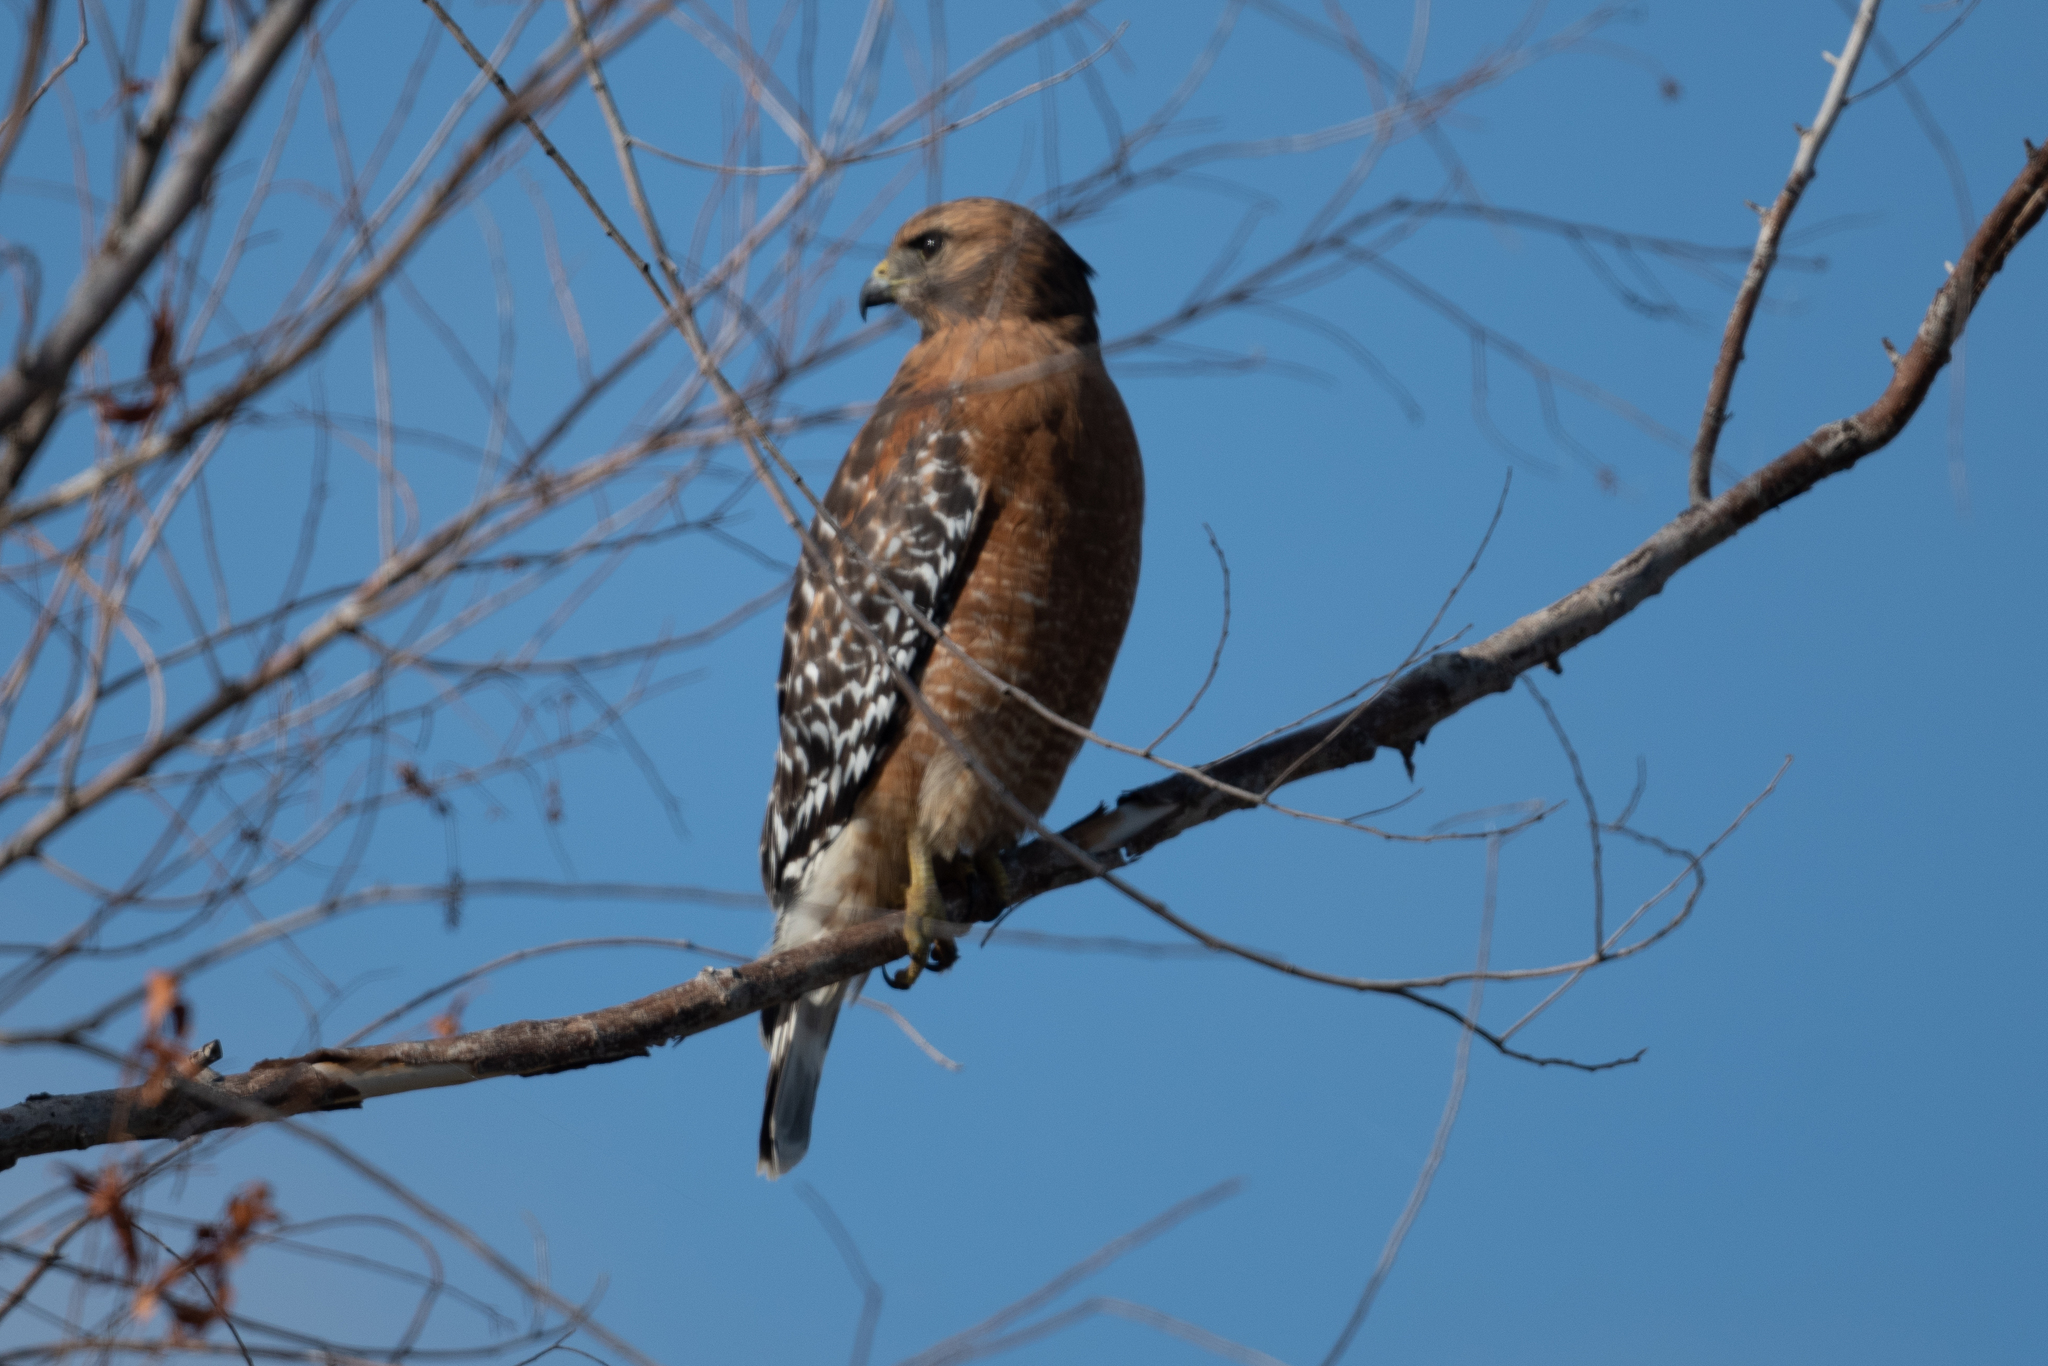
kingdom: Animalia
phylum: Chordata
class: Aves
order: Accipitriformes
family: Accipitridae
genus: Buteo
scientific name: Buteo lineatus
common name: Red-shouldered hawk
